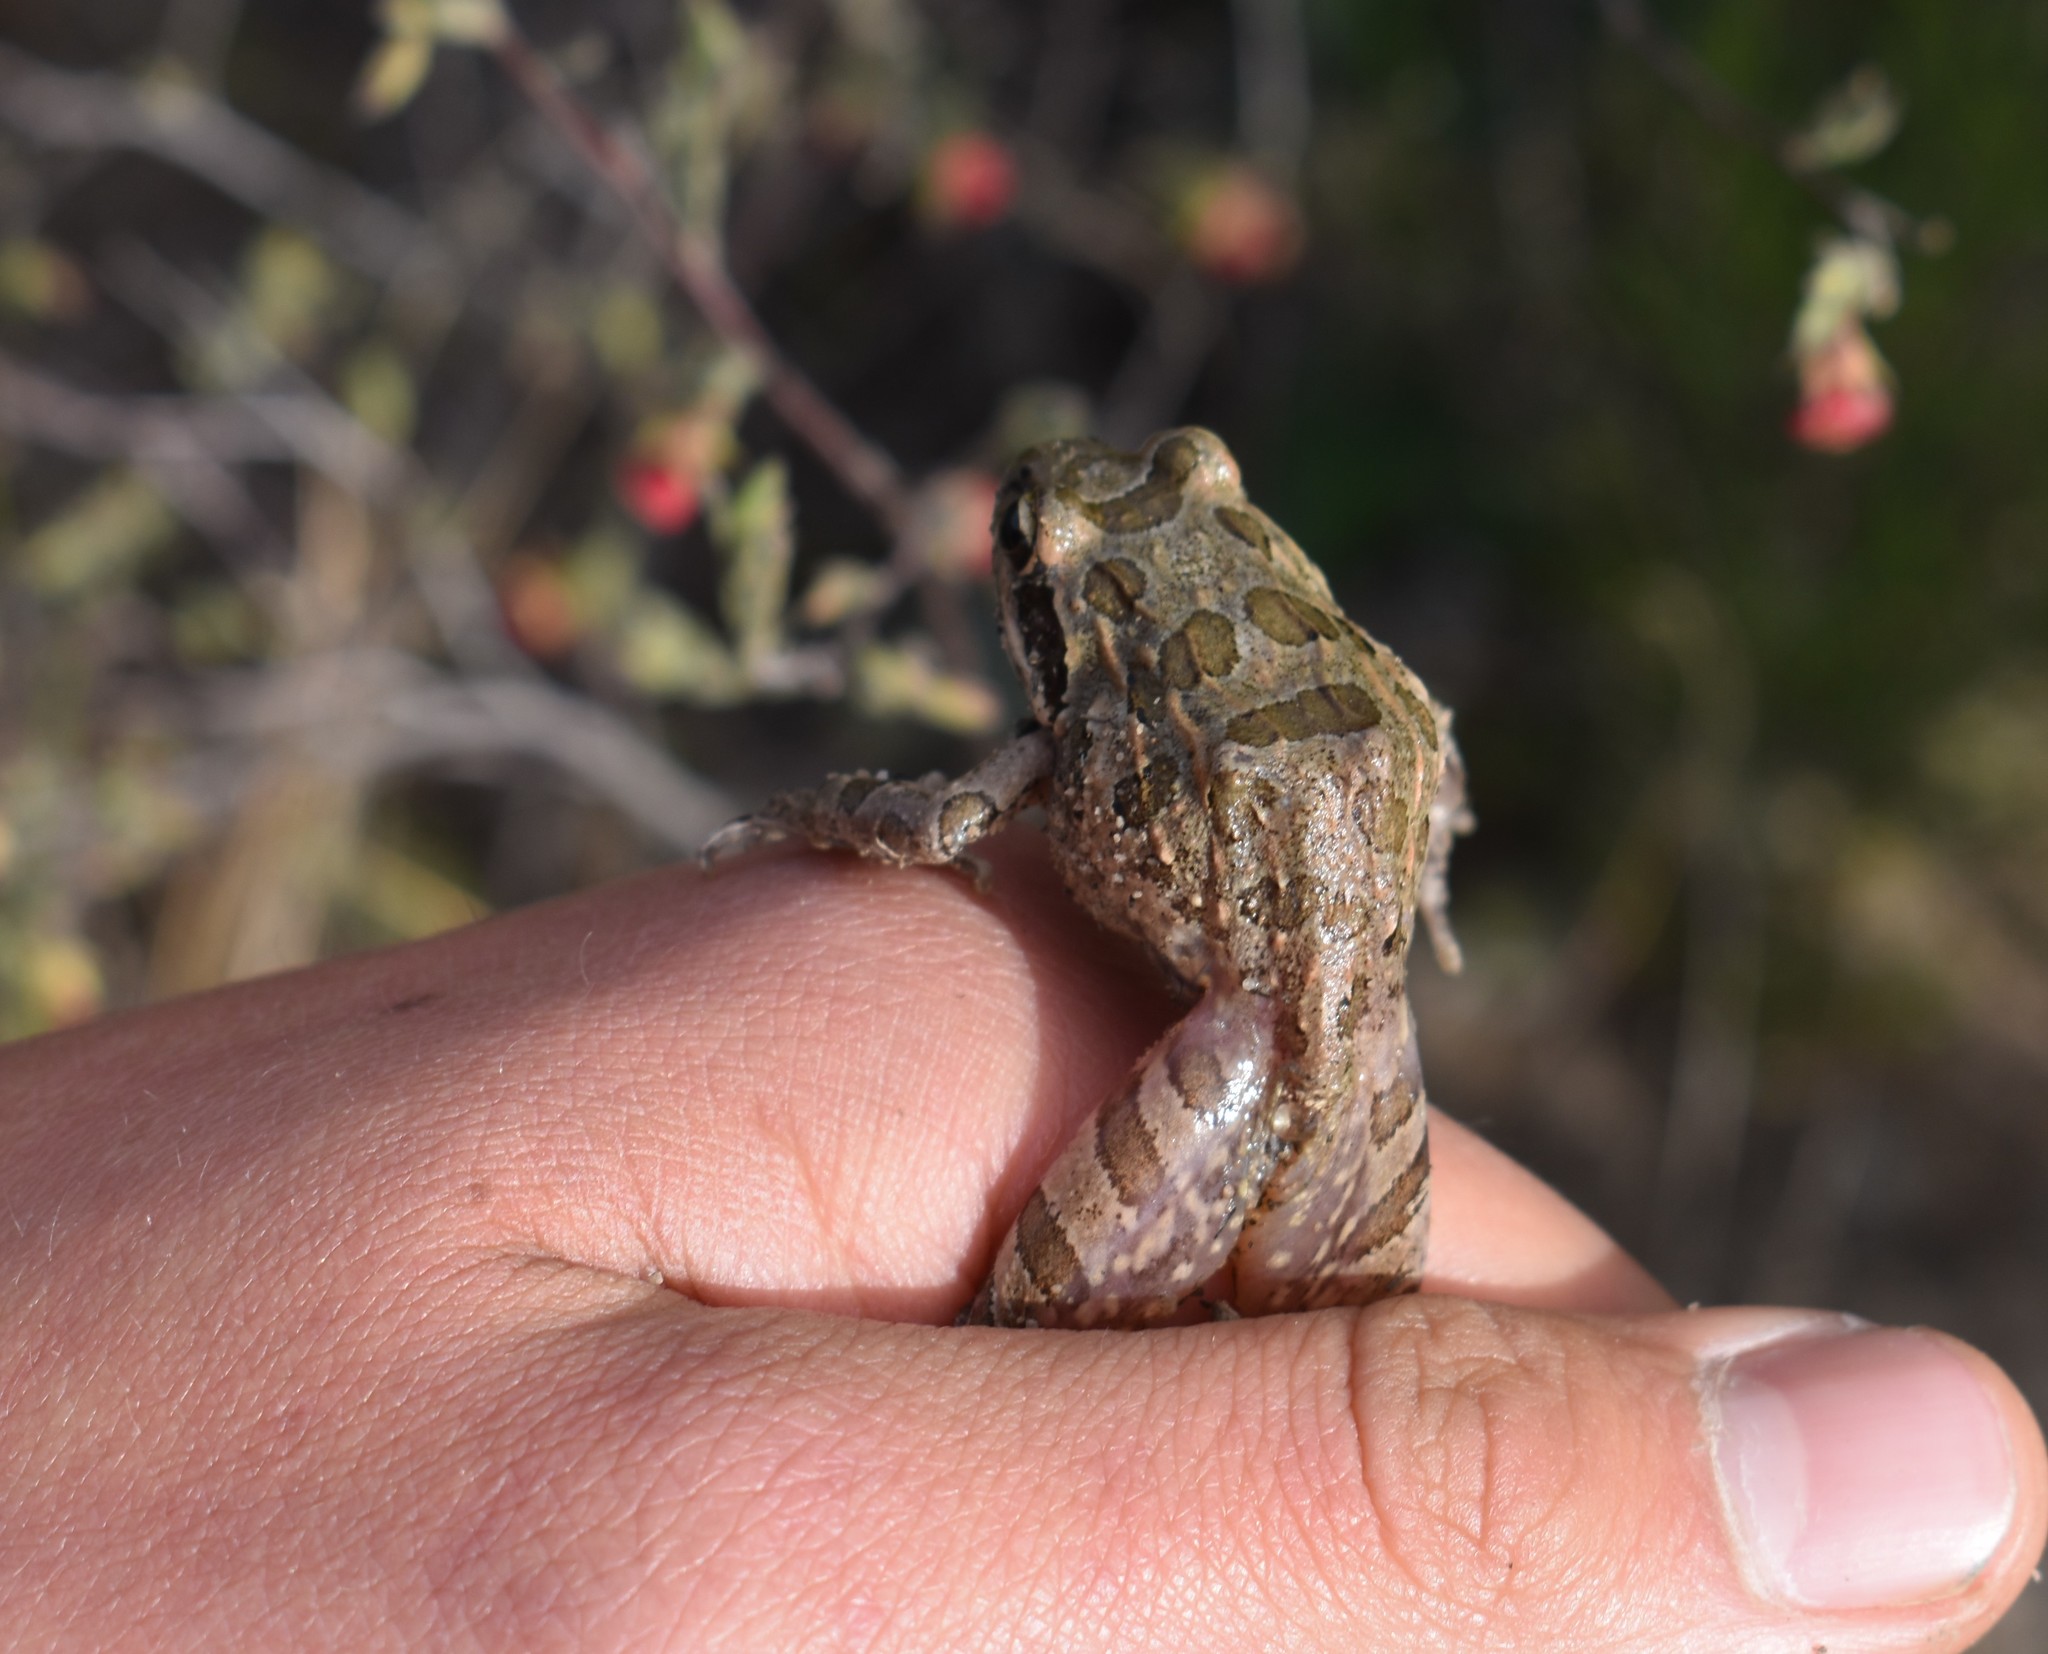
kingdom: Animalia
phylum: Chordata
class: Amphibia
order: Anura
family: Pyxicephalidae
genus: Strongylopus
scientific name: Strongylopus grayii
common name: Gray's stream frog
